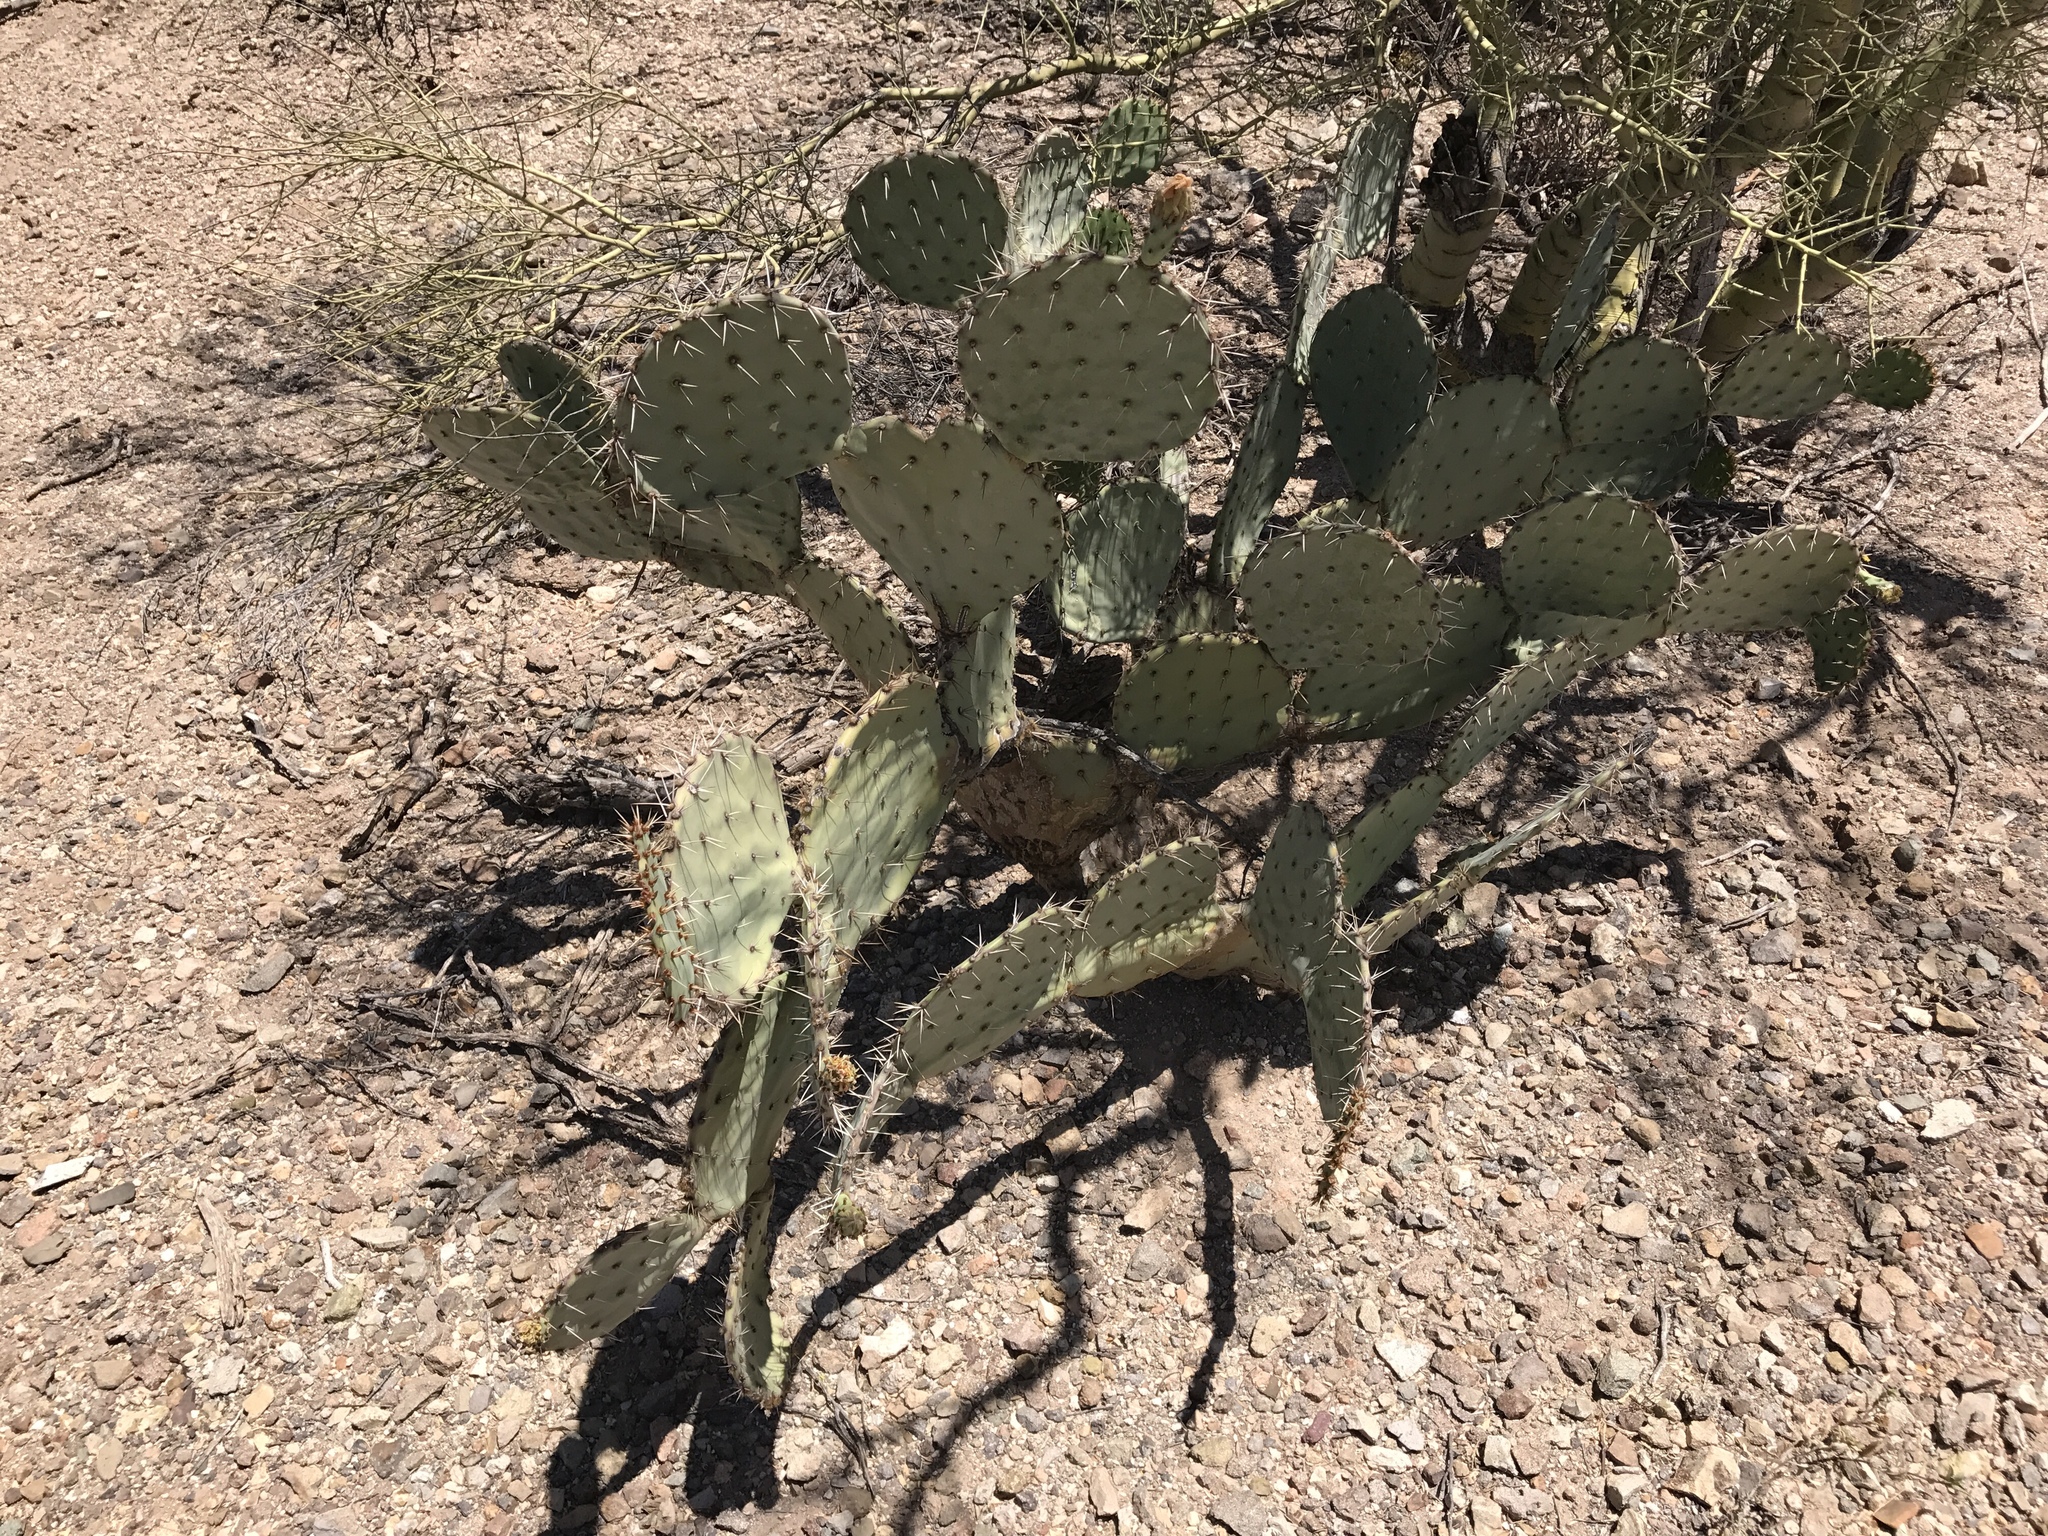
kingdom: Plantae
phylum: Tracheophyta
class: Magnoliopsida
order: Caryophyllales
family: Cactaceae
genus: Opuntia
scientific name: Opuntia engelmannii
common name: Cactus-apple
